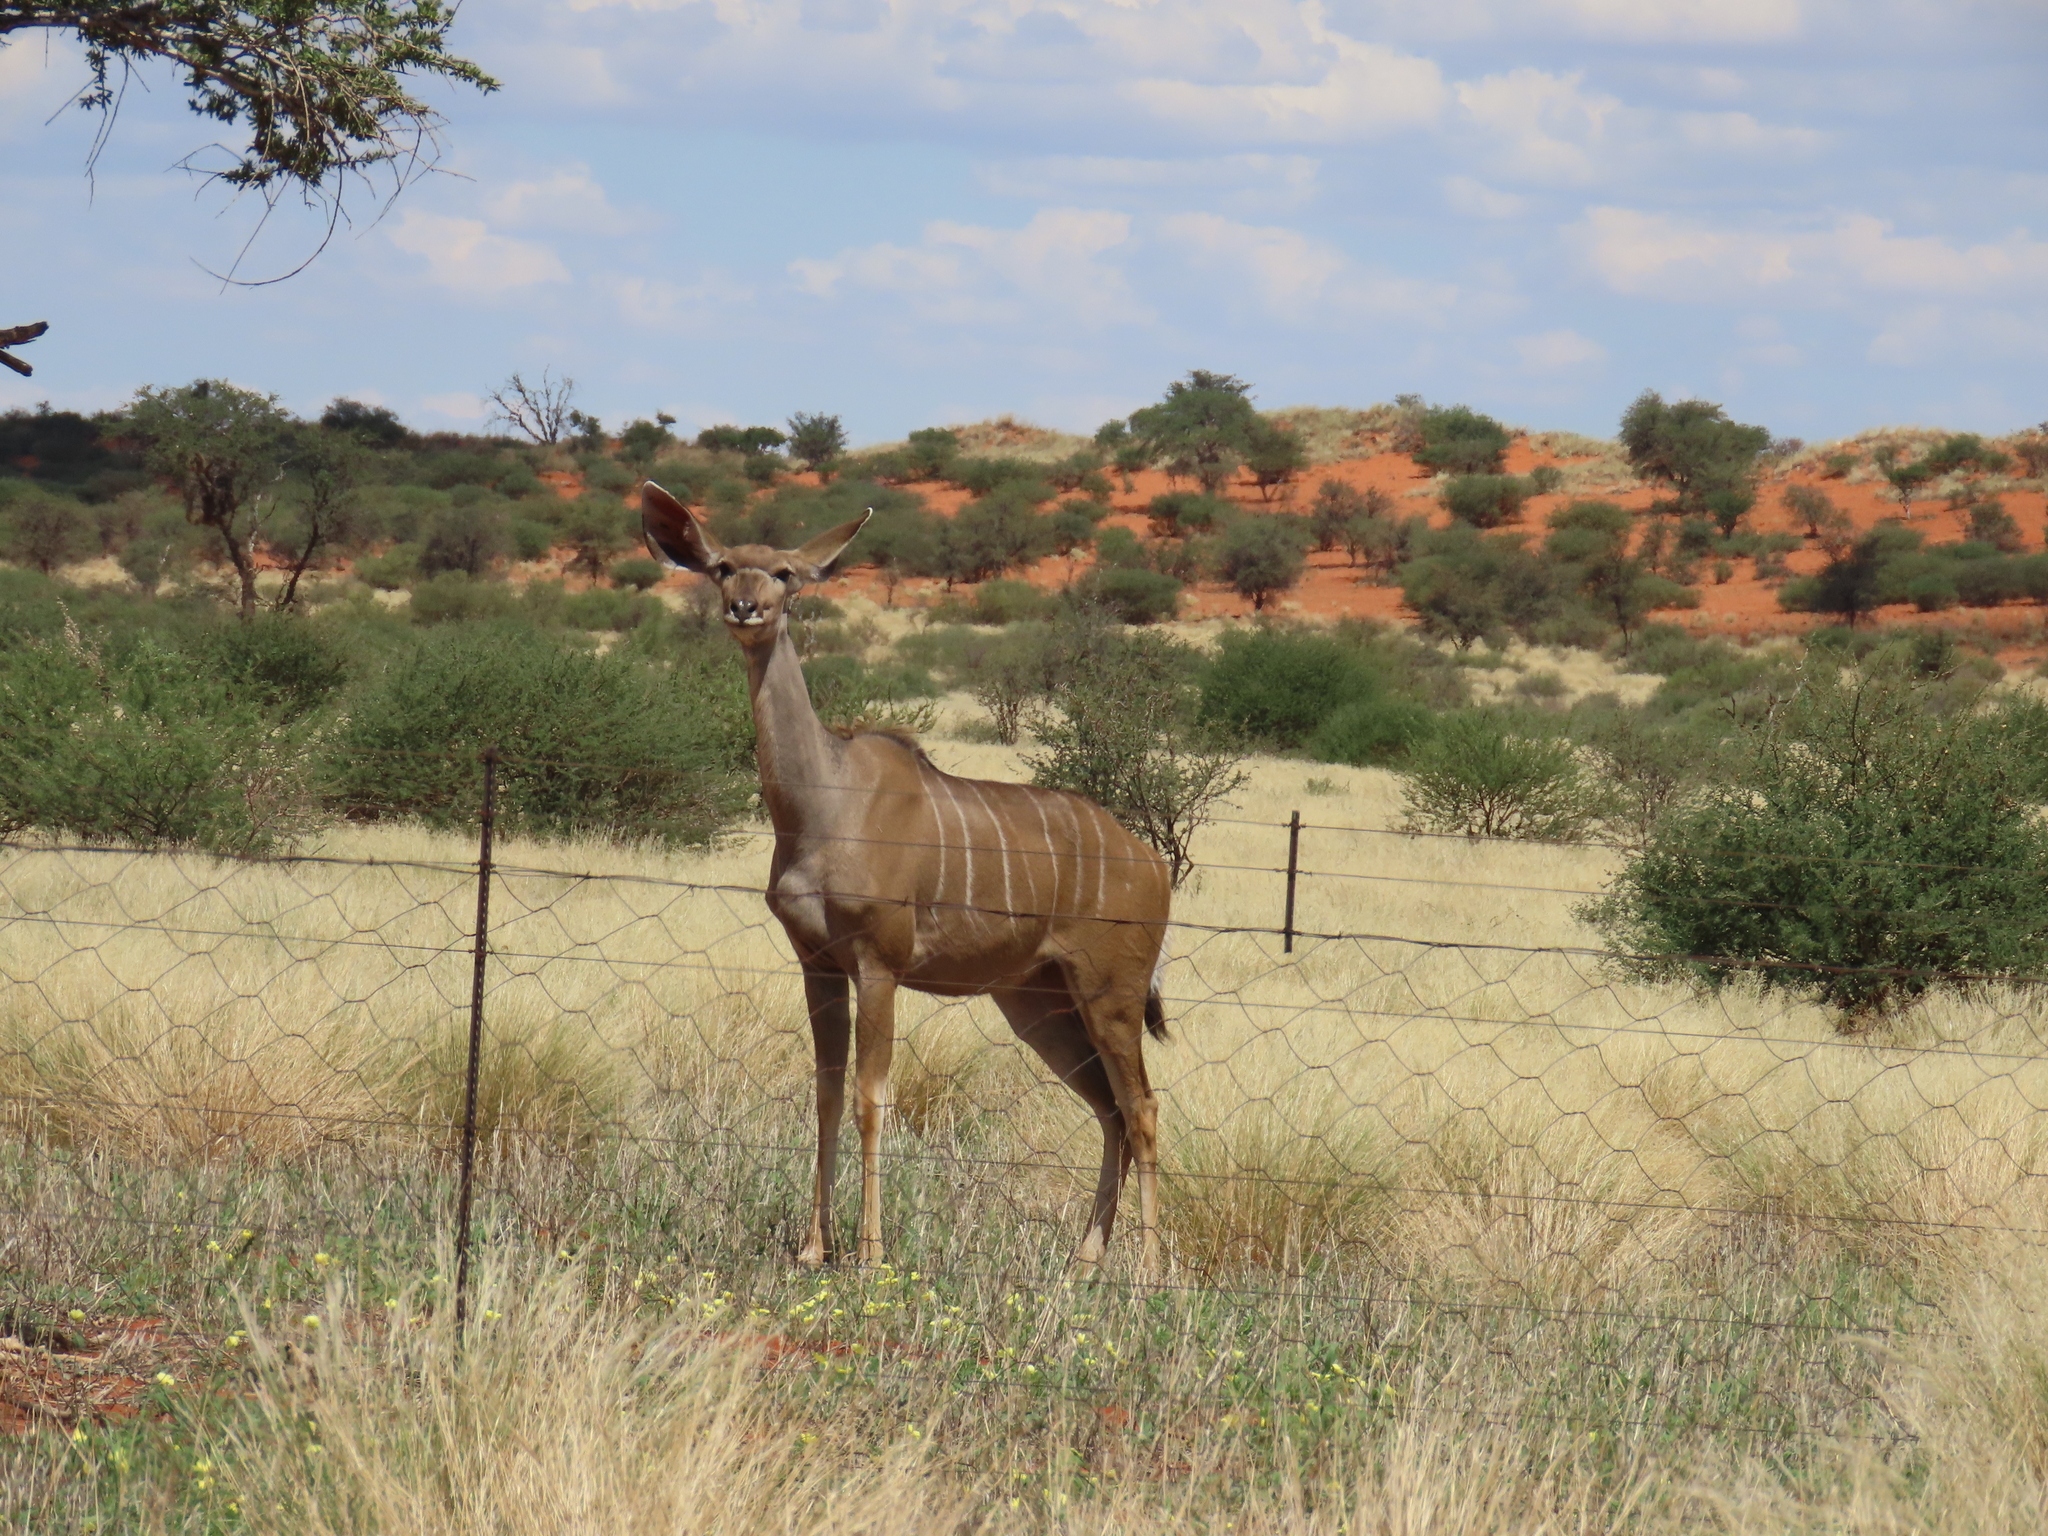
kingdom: Animalia
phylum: Chordata
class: Mammalia
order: Artiodactyla
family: Bovidae
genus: Tragelaphus
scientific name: Tragelaphus strepsiceros
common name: Greater kudu
